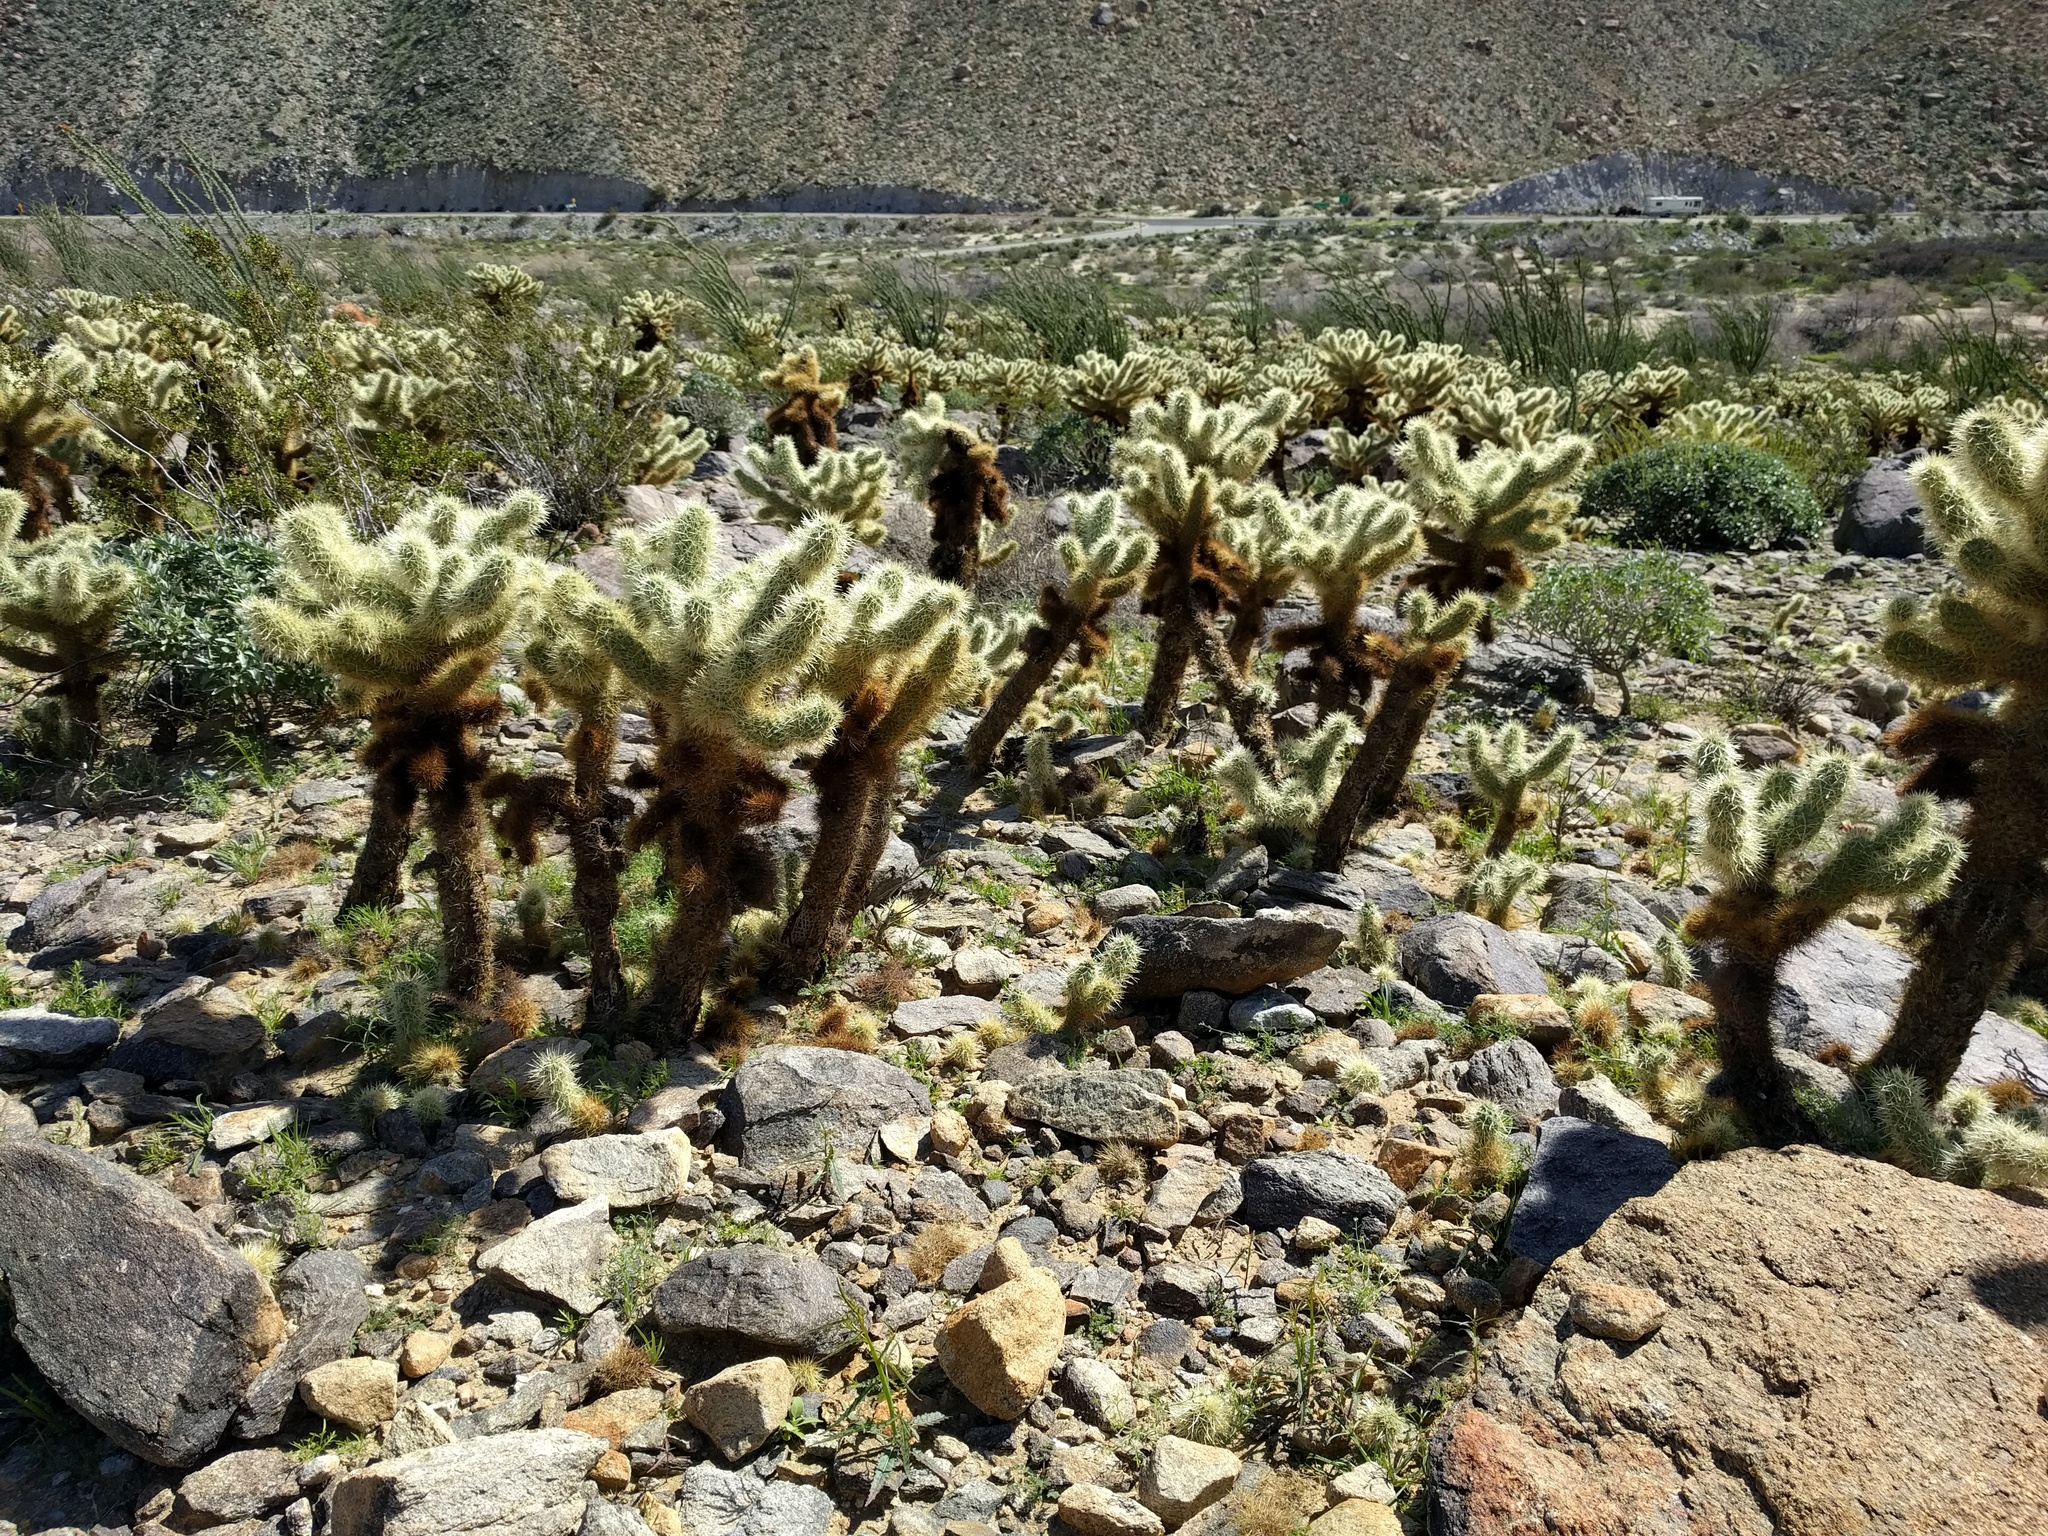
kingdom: Plantae
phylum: Tracheophyta
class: Magnoliopsida
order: Caryophyllales
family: Cactaceae
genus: Cylindropuntia
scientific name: Cylindropuntia fosbergii
